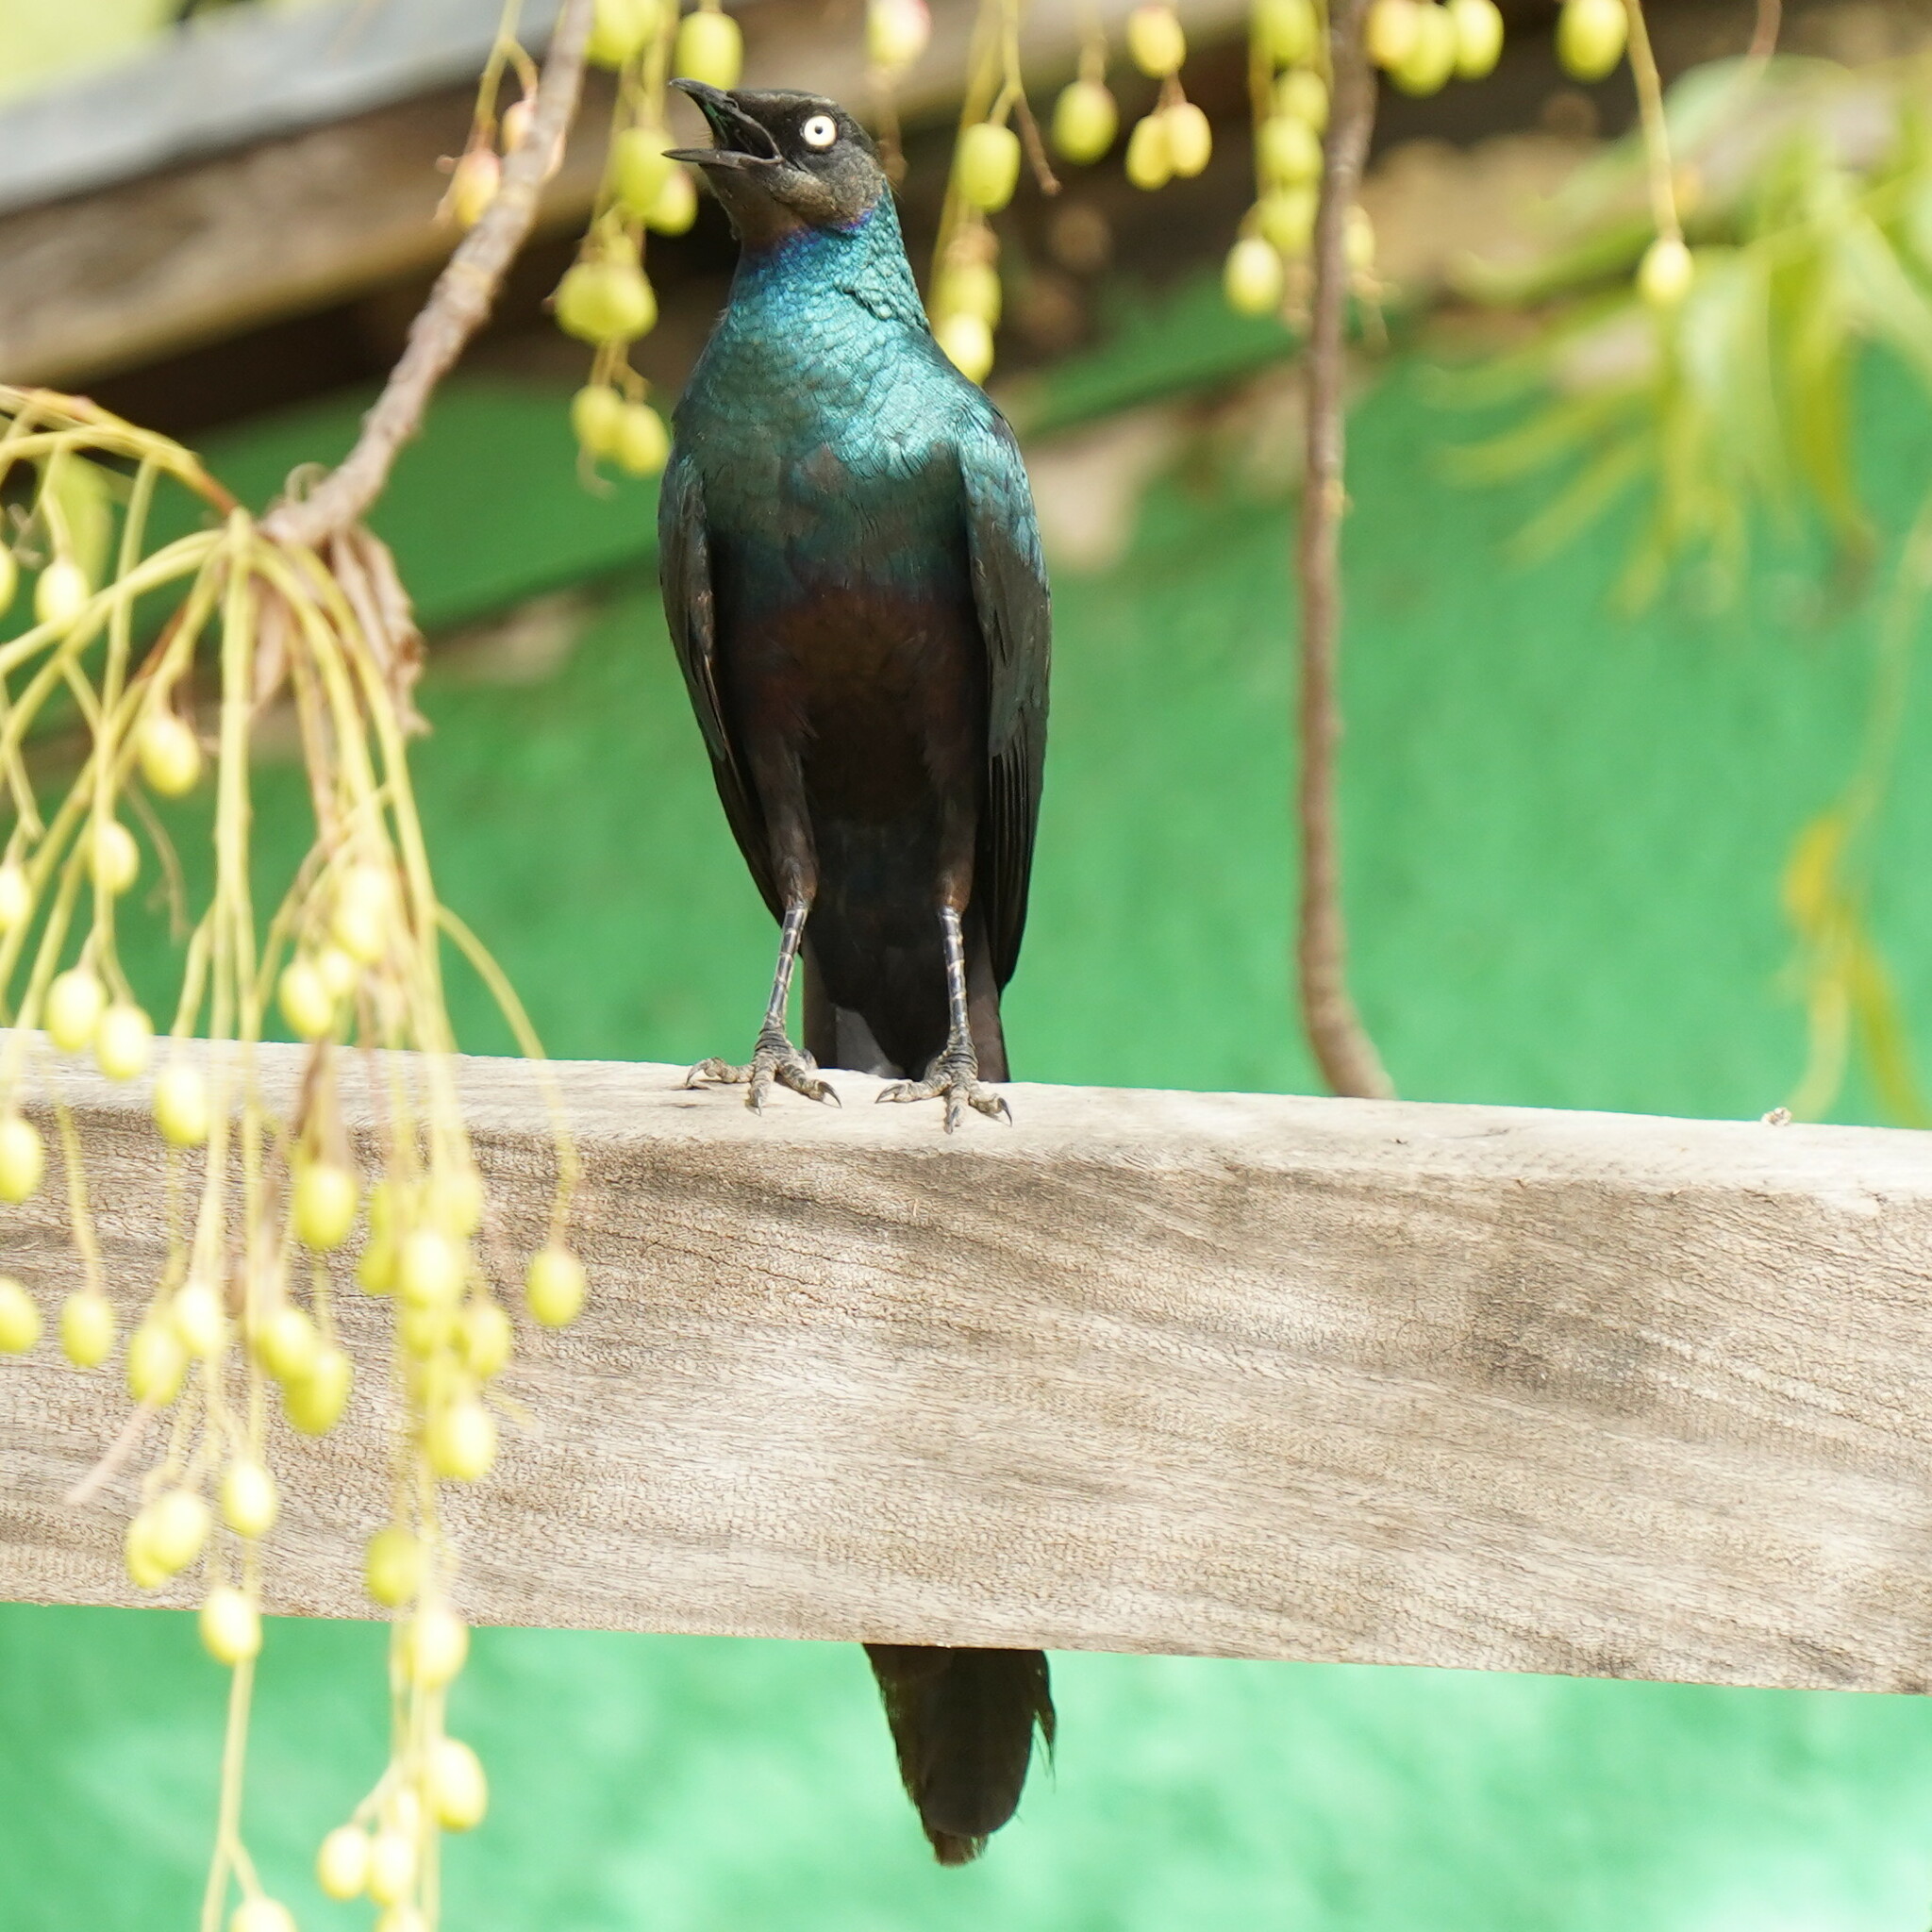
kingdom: Animalia
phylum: Chordata
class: Aves
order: Passeriformes
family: Sturnidae
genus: Lamprotornis
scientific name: Lamprotornis caudatus
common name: Long-tailed glossy starling
